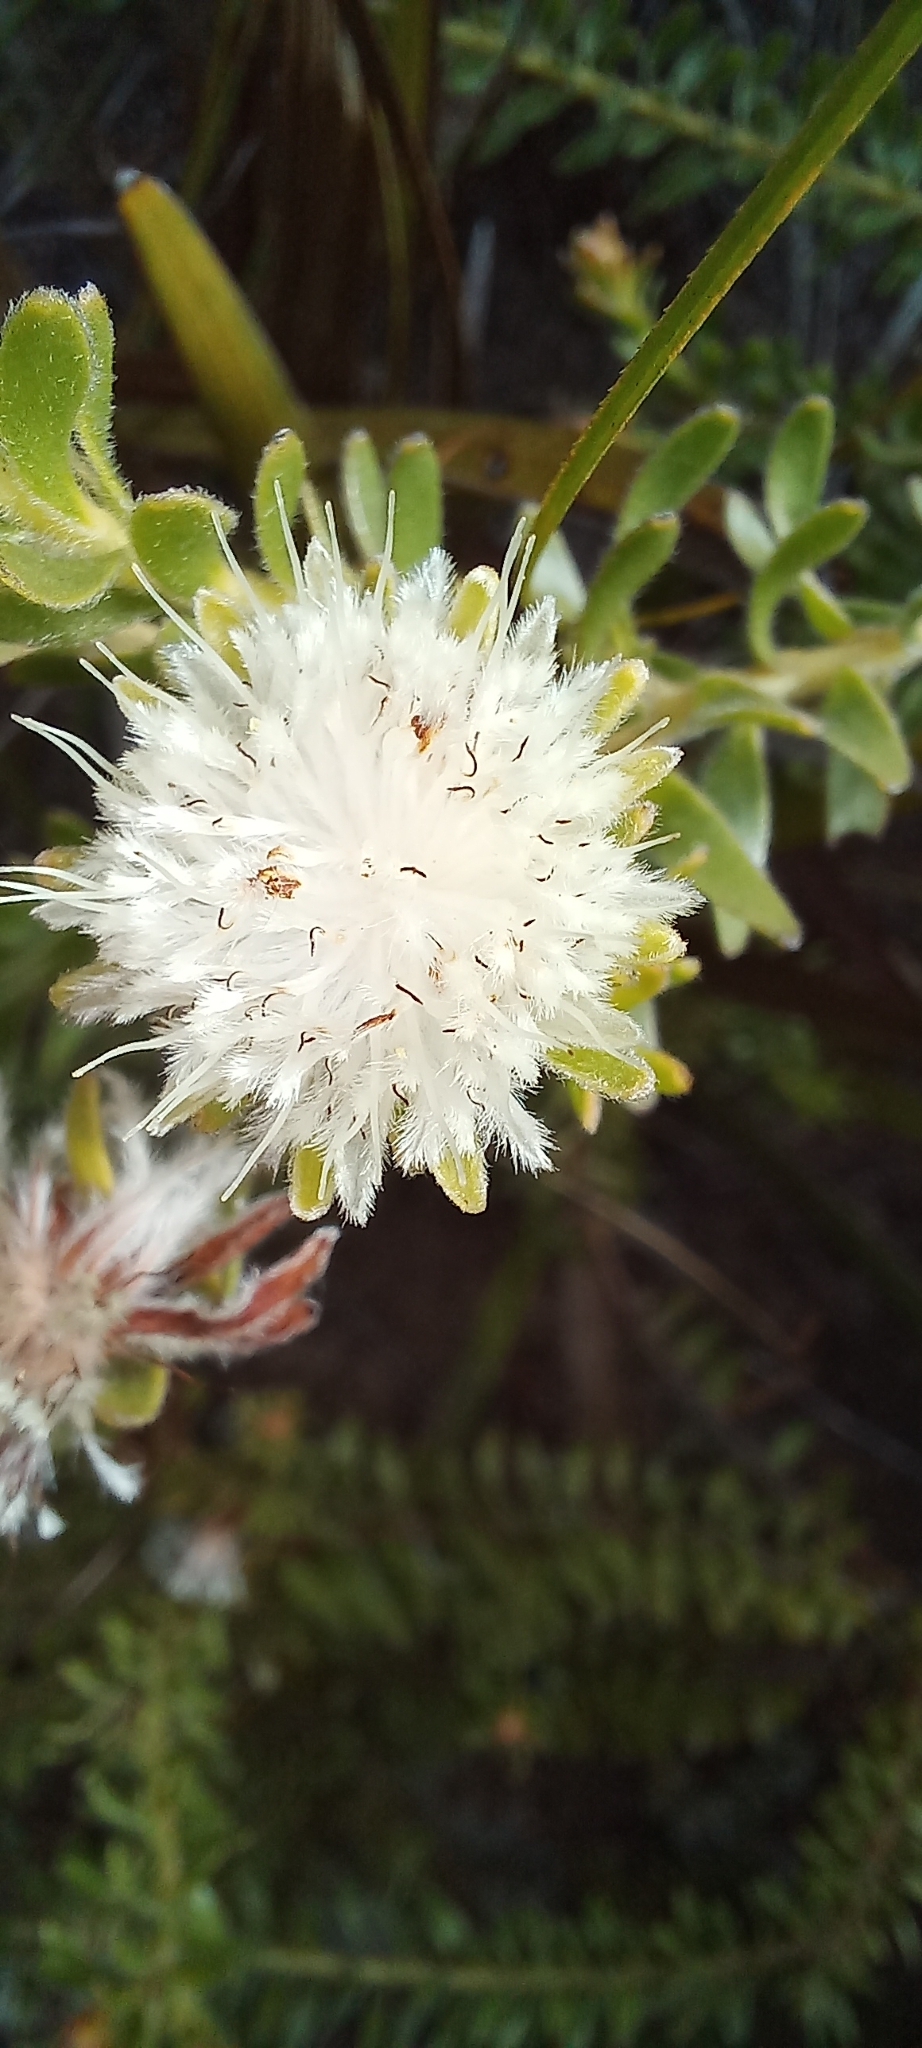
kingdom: Plantae
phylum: Tracheophyta
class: Magnoliopsida
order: Proteales
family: Proteaceae
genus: Diastella
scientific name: Diastella fraterna
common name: Palmiet silkypuff
